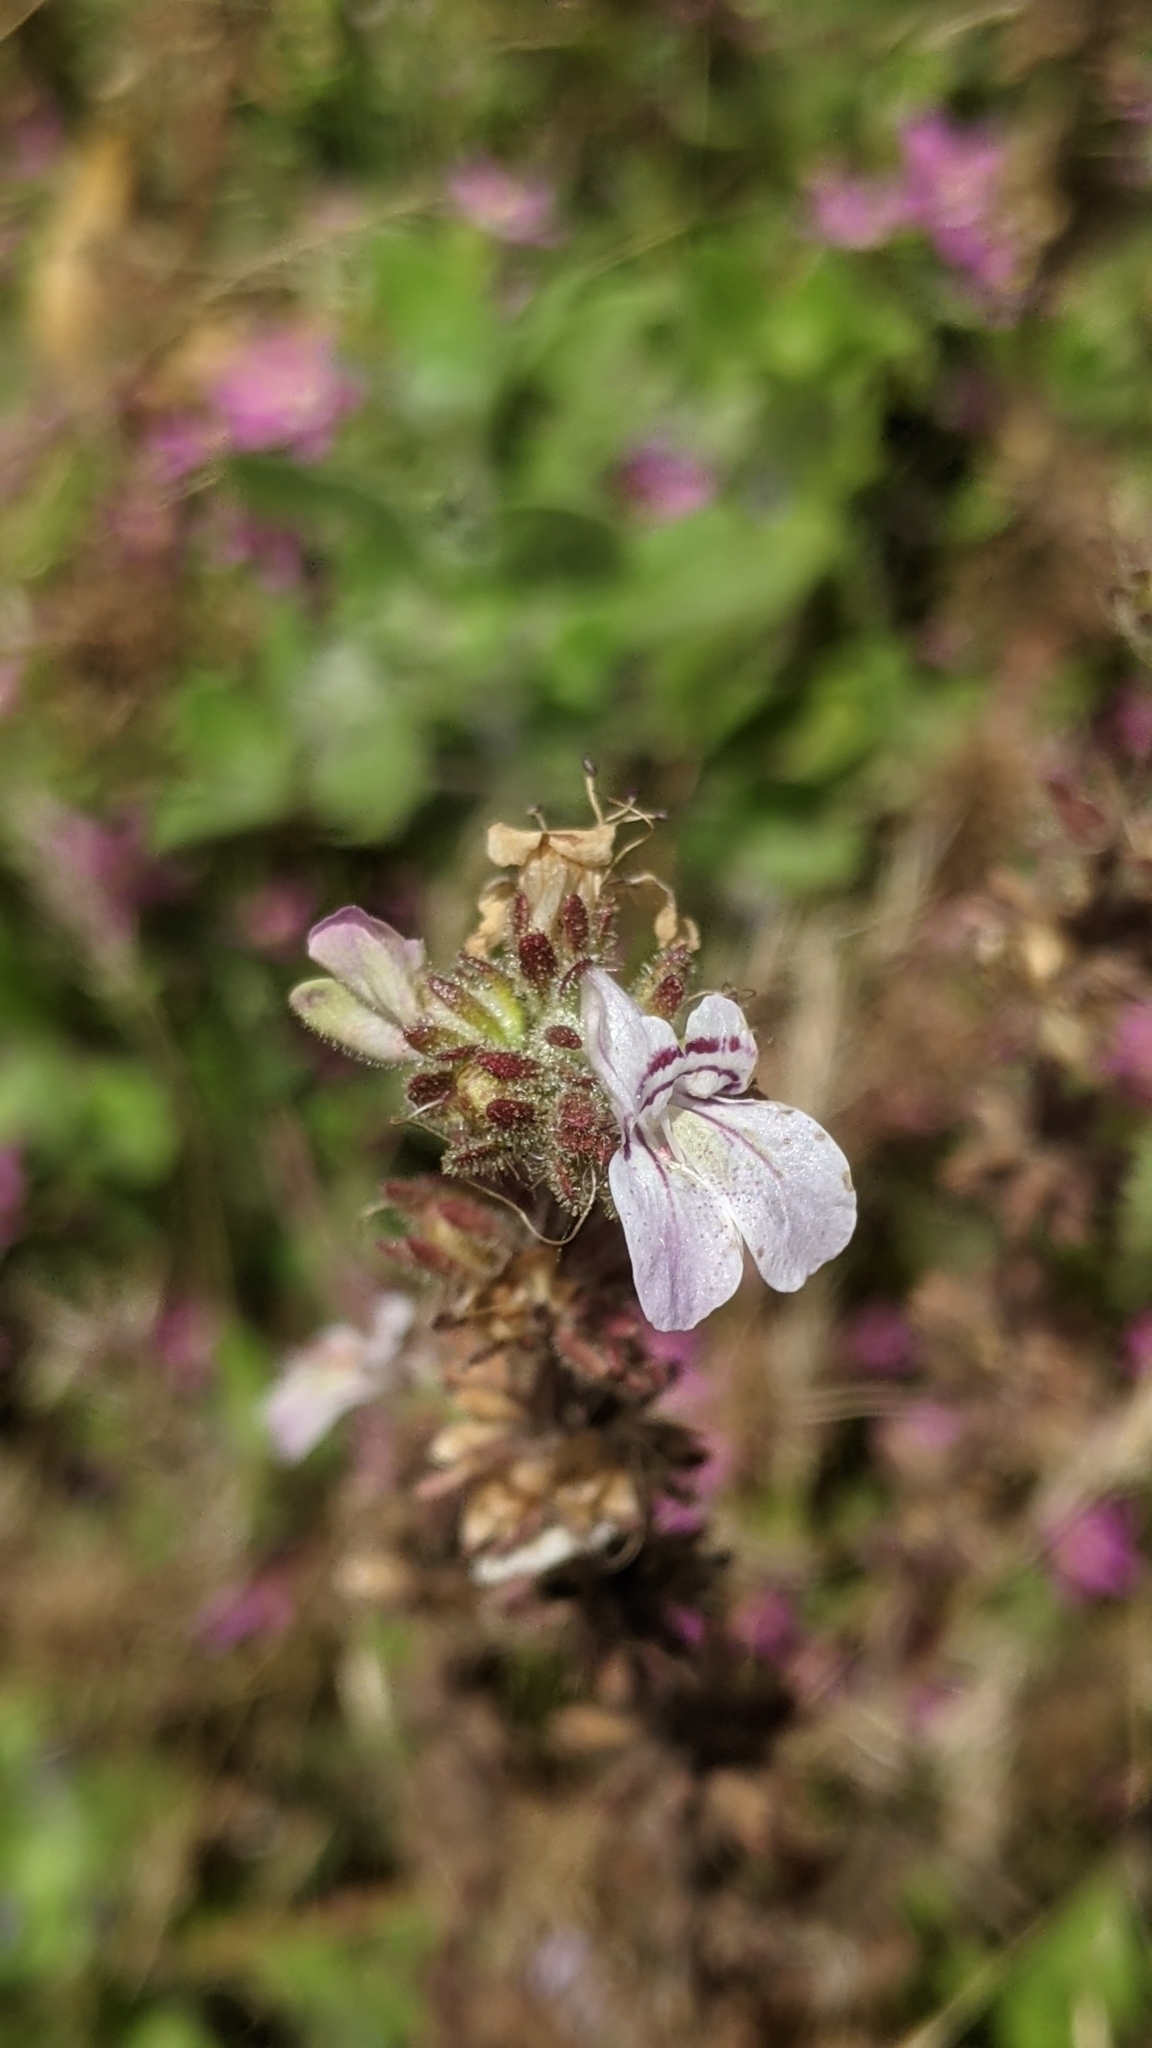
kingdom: Plantae
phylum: Tracheophyta
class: Magnoliopsida
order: Lamiales
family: Plantaginaceae
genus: Collinsia
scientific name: Collinsia tinctoria
